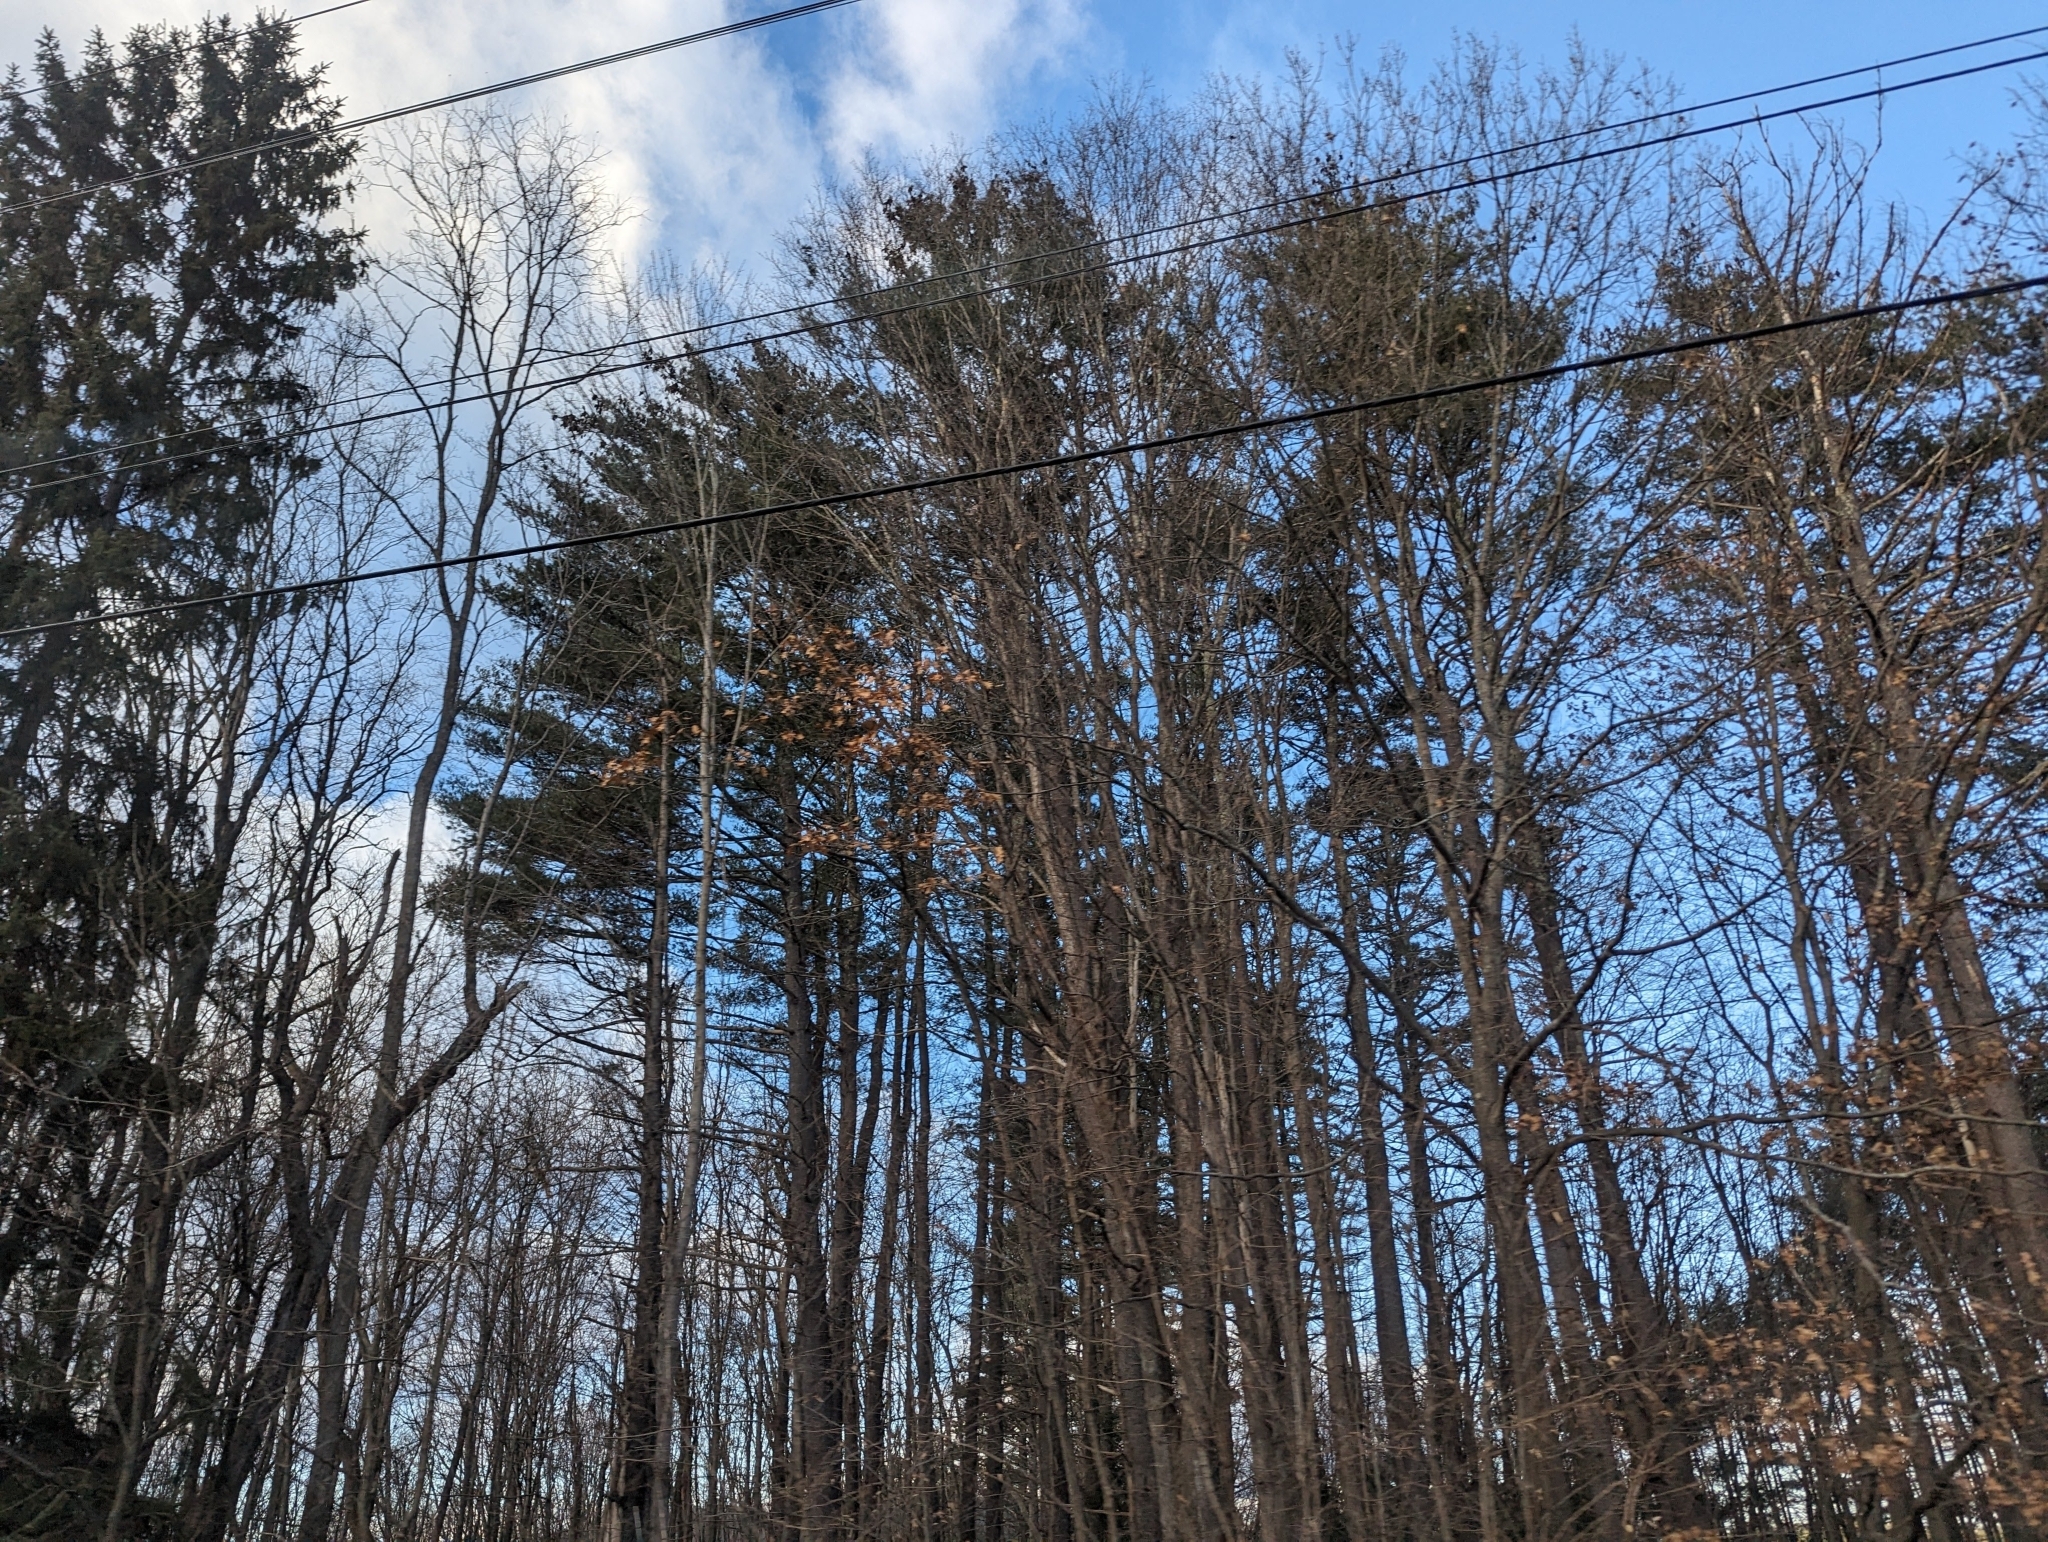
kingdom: Plantae
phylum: Tracheophyta
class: Pinopsida
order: Pinales
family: Pinaceae
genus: Pinus
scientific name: Pinus strobus
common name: Weymouth pine
